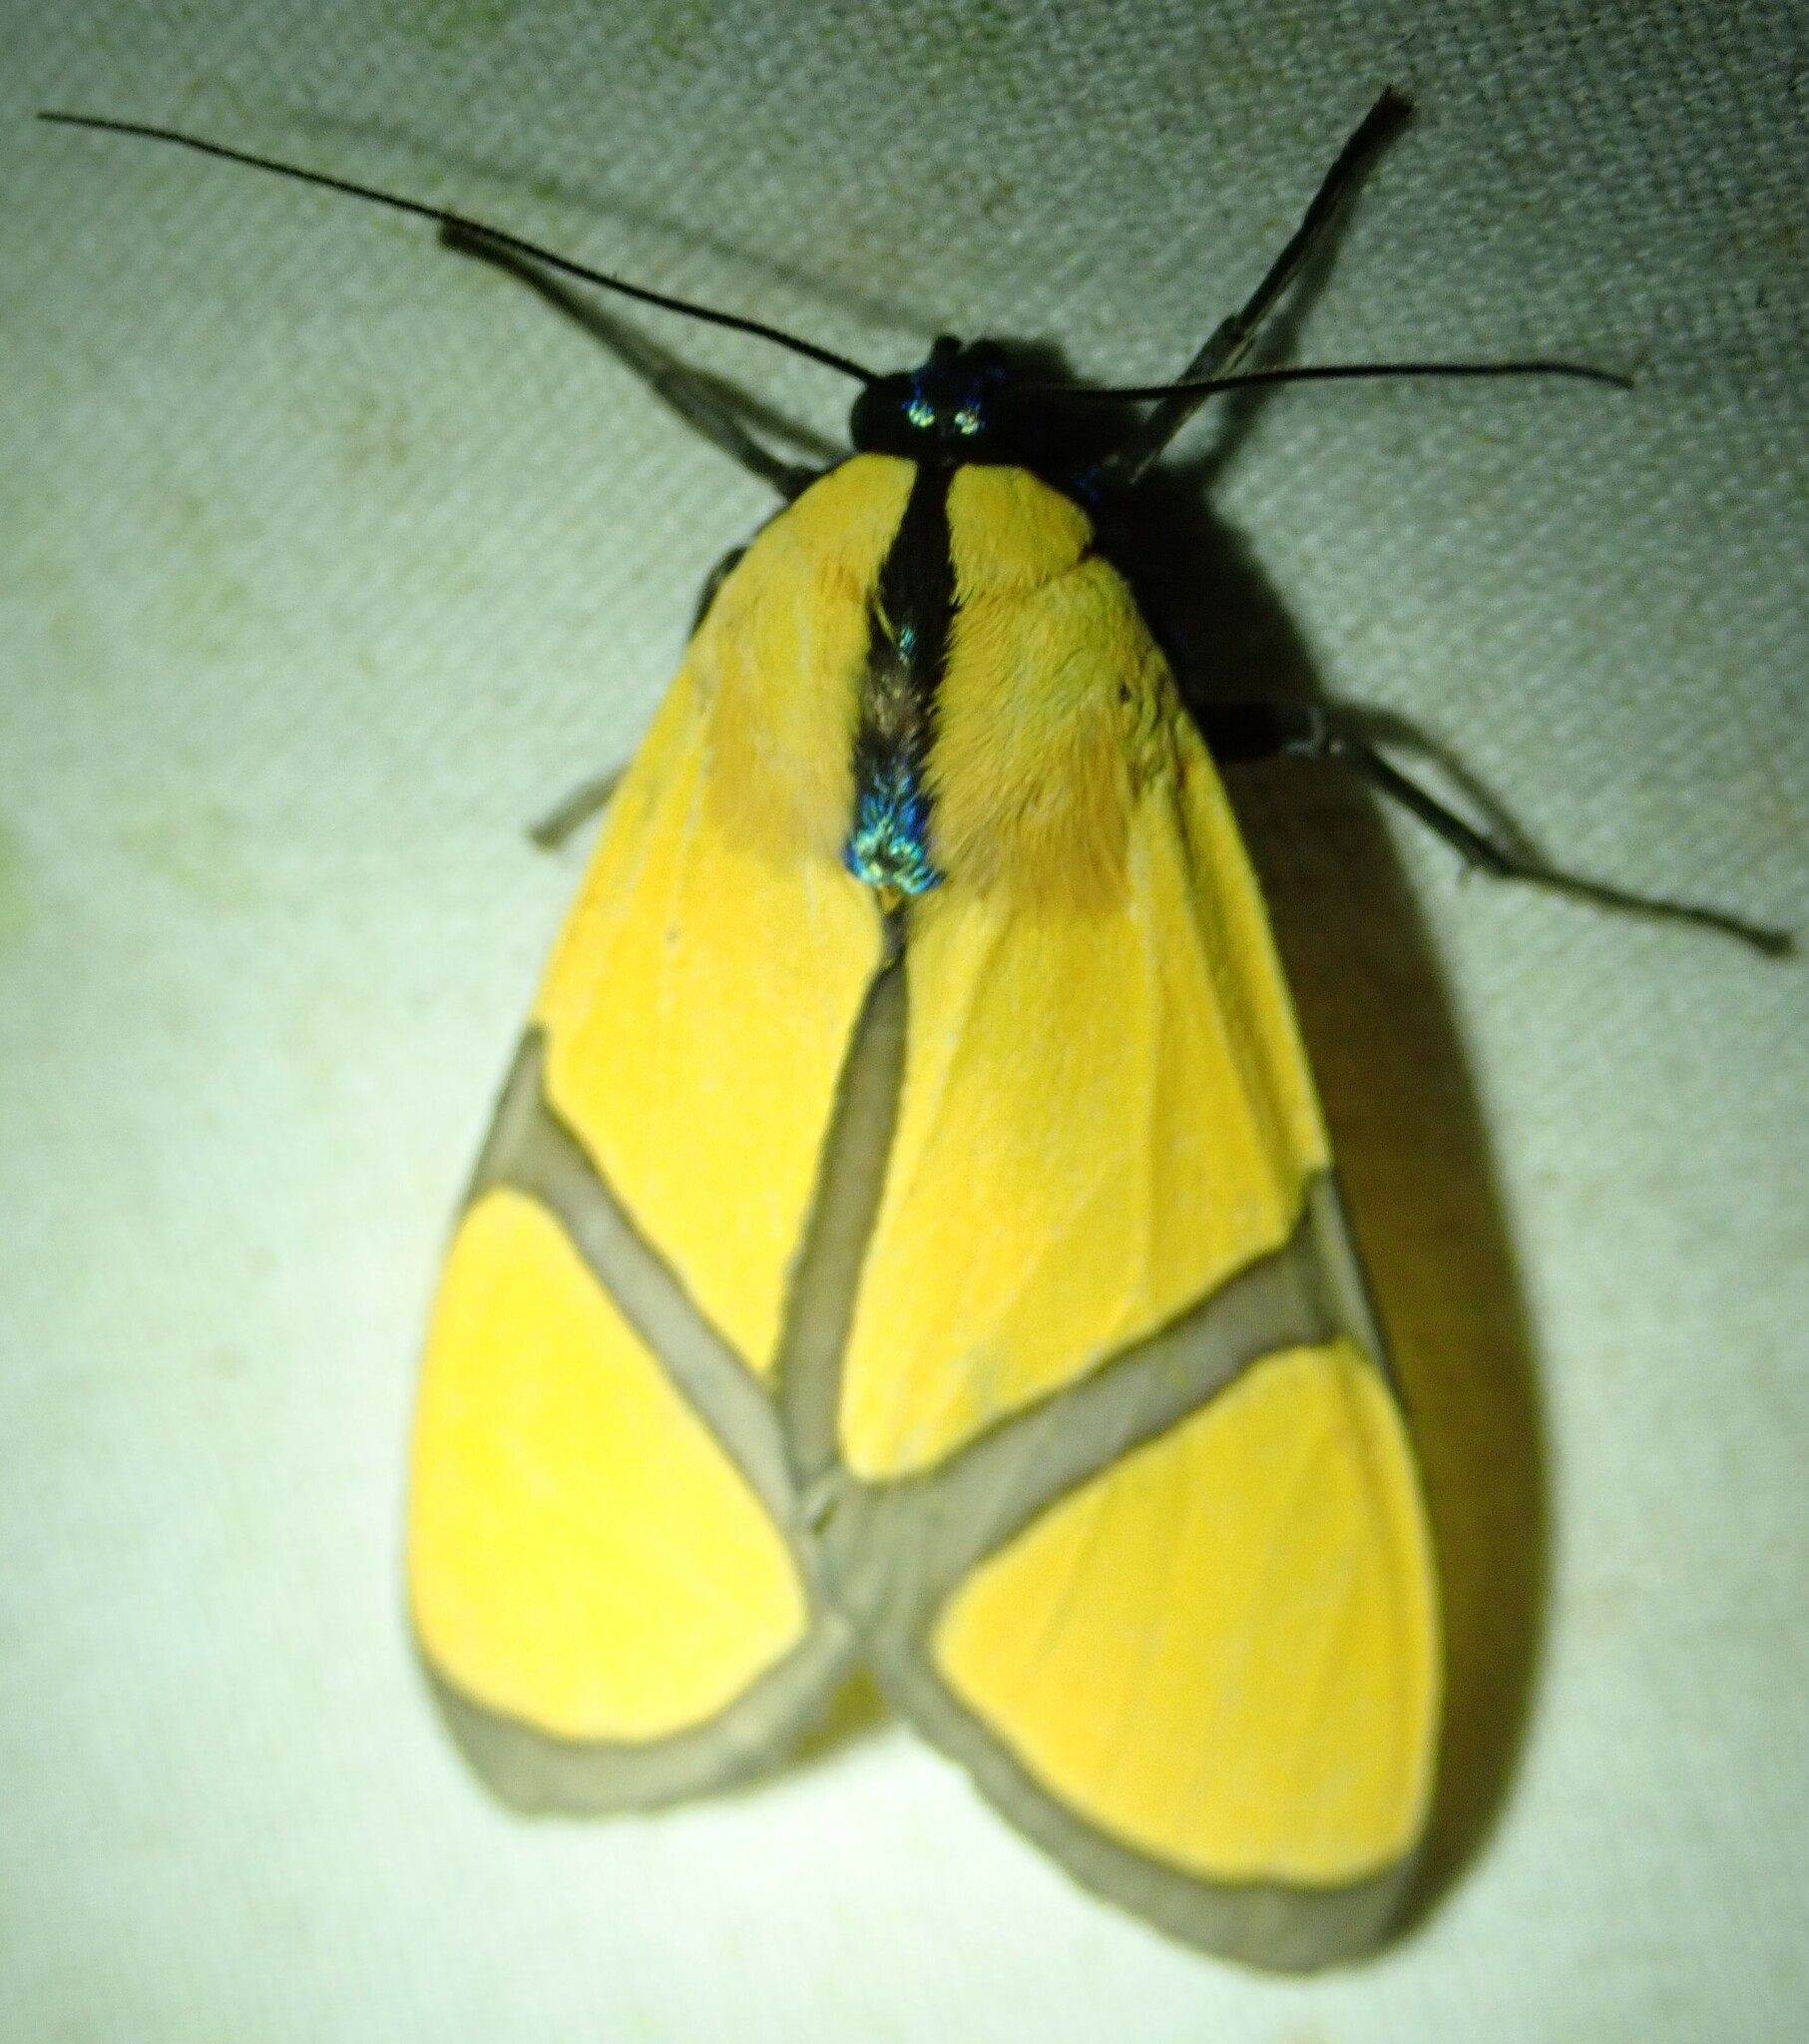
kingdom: Animalia
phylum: Arthropoda
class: Insecta
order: Lepidoptera
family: Erebidae
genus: Ormetica
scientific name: Ormetica ameoides
